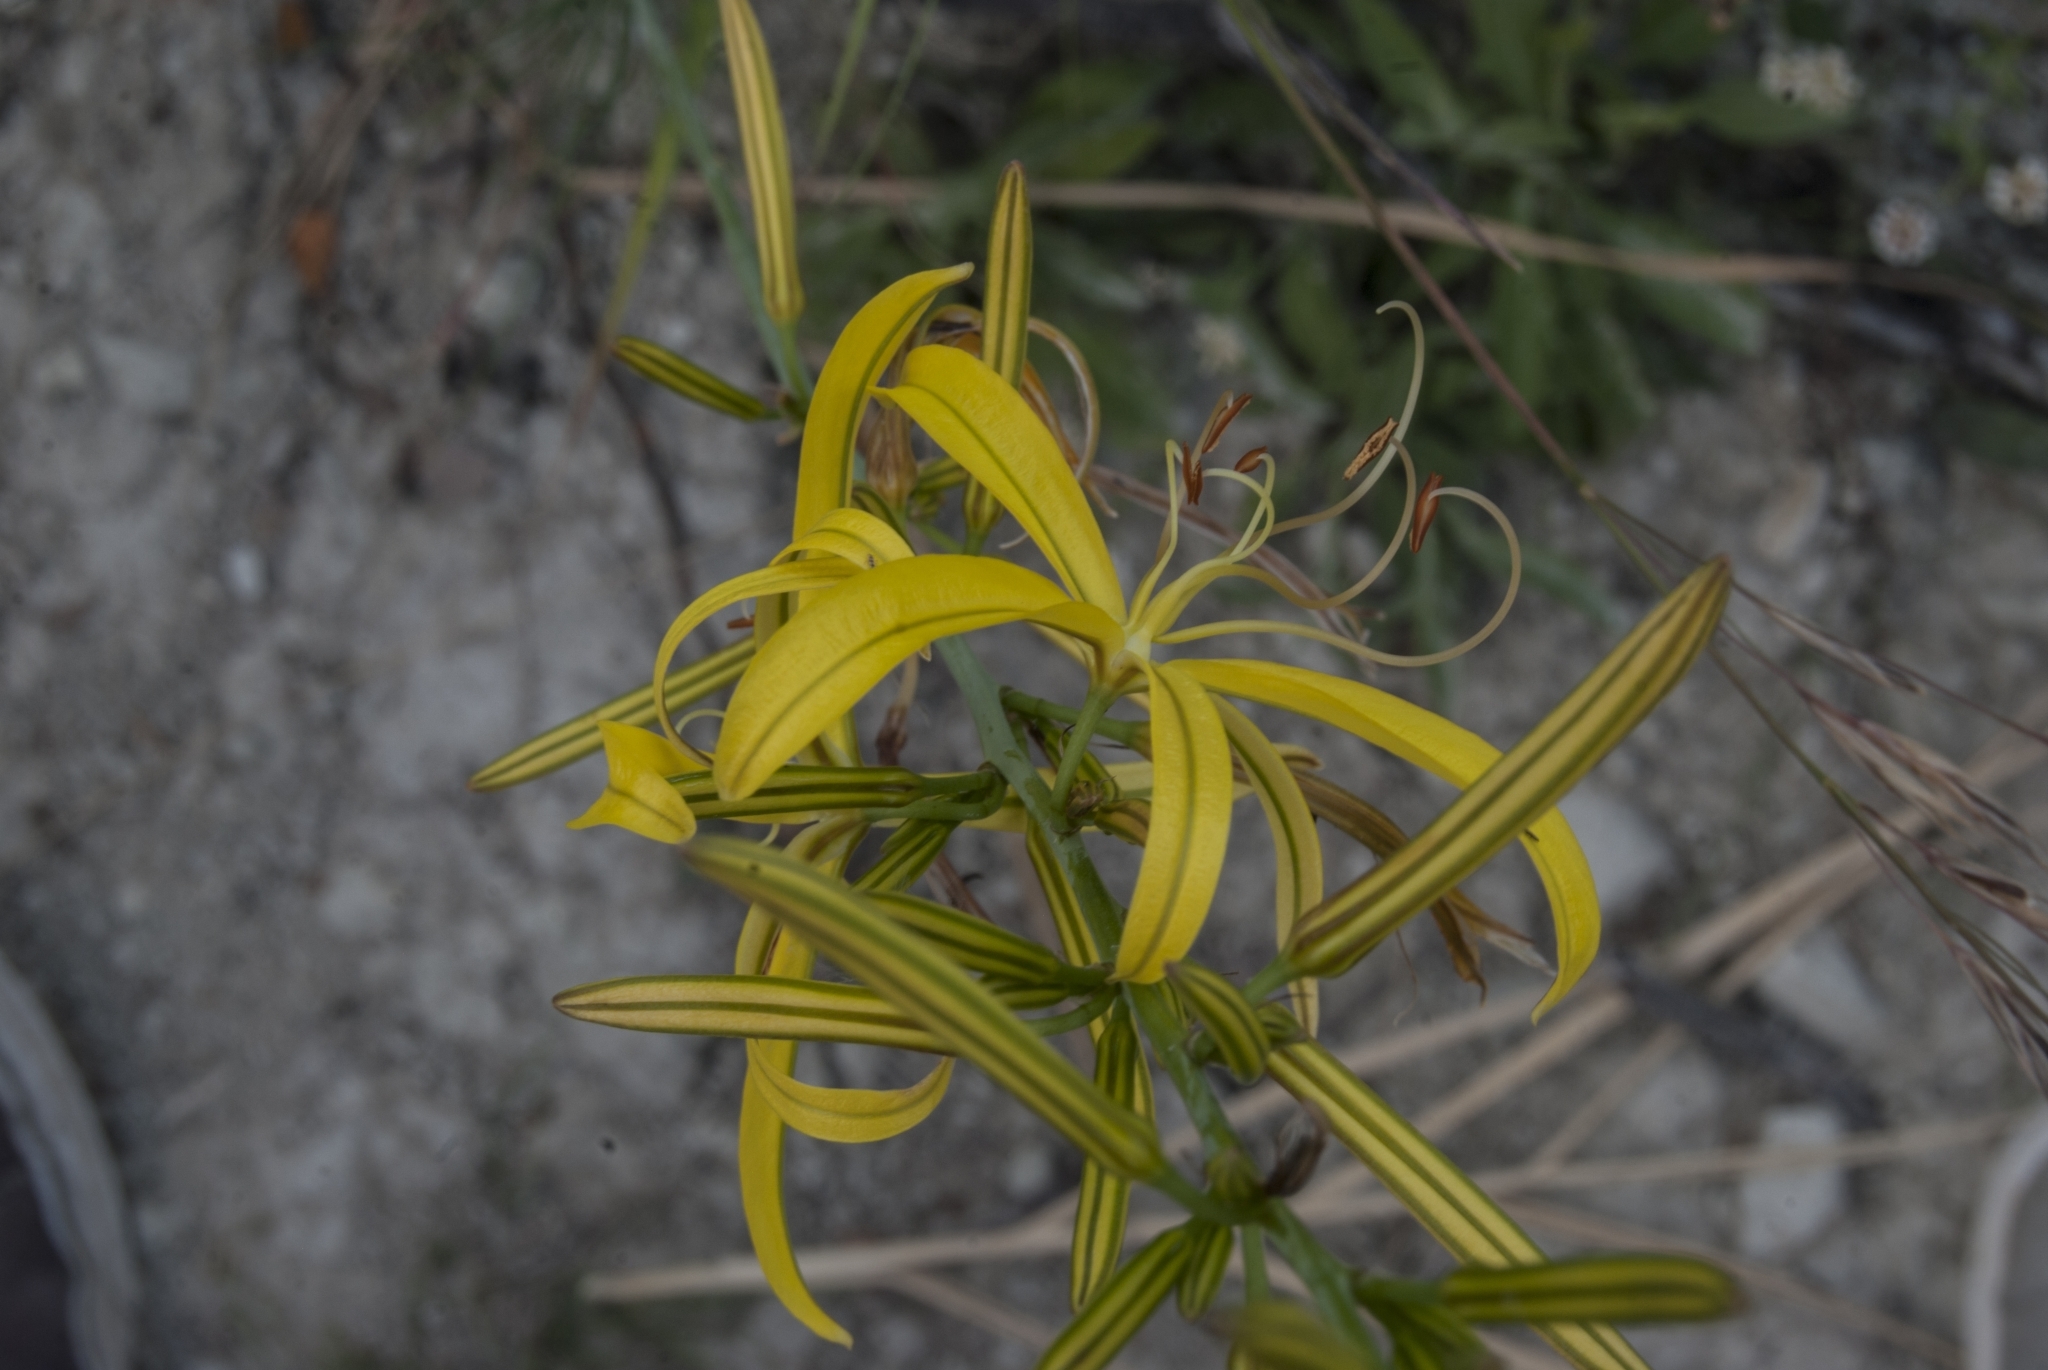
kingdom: Plantae
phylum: Tracheophyta
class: Liliopsida
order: Asparagales
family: Asphodelaceae
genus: Asphodeline
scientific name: Asphodeline liburnica
